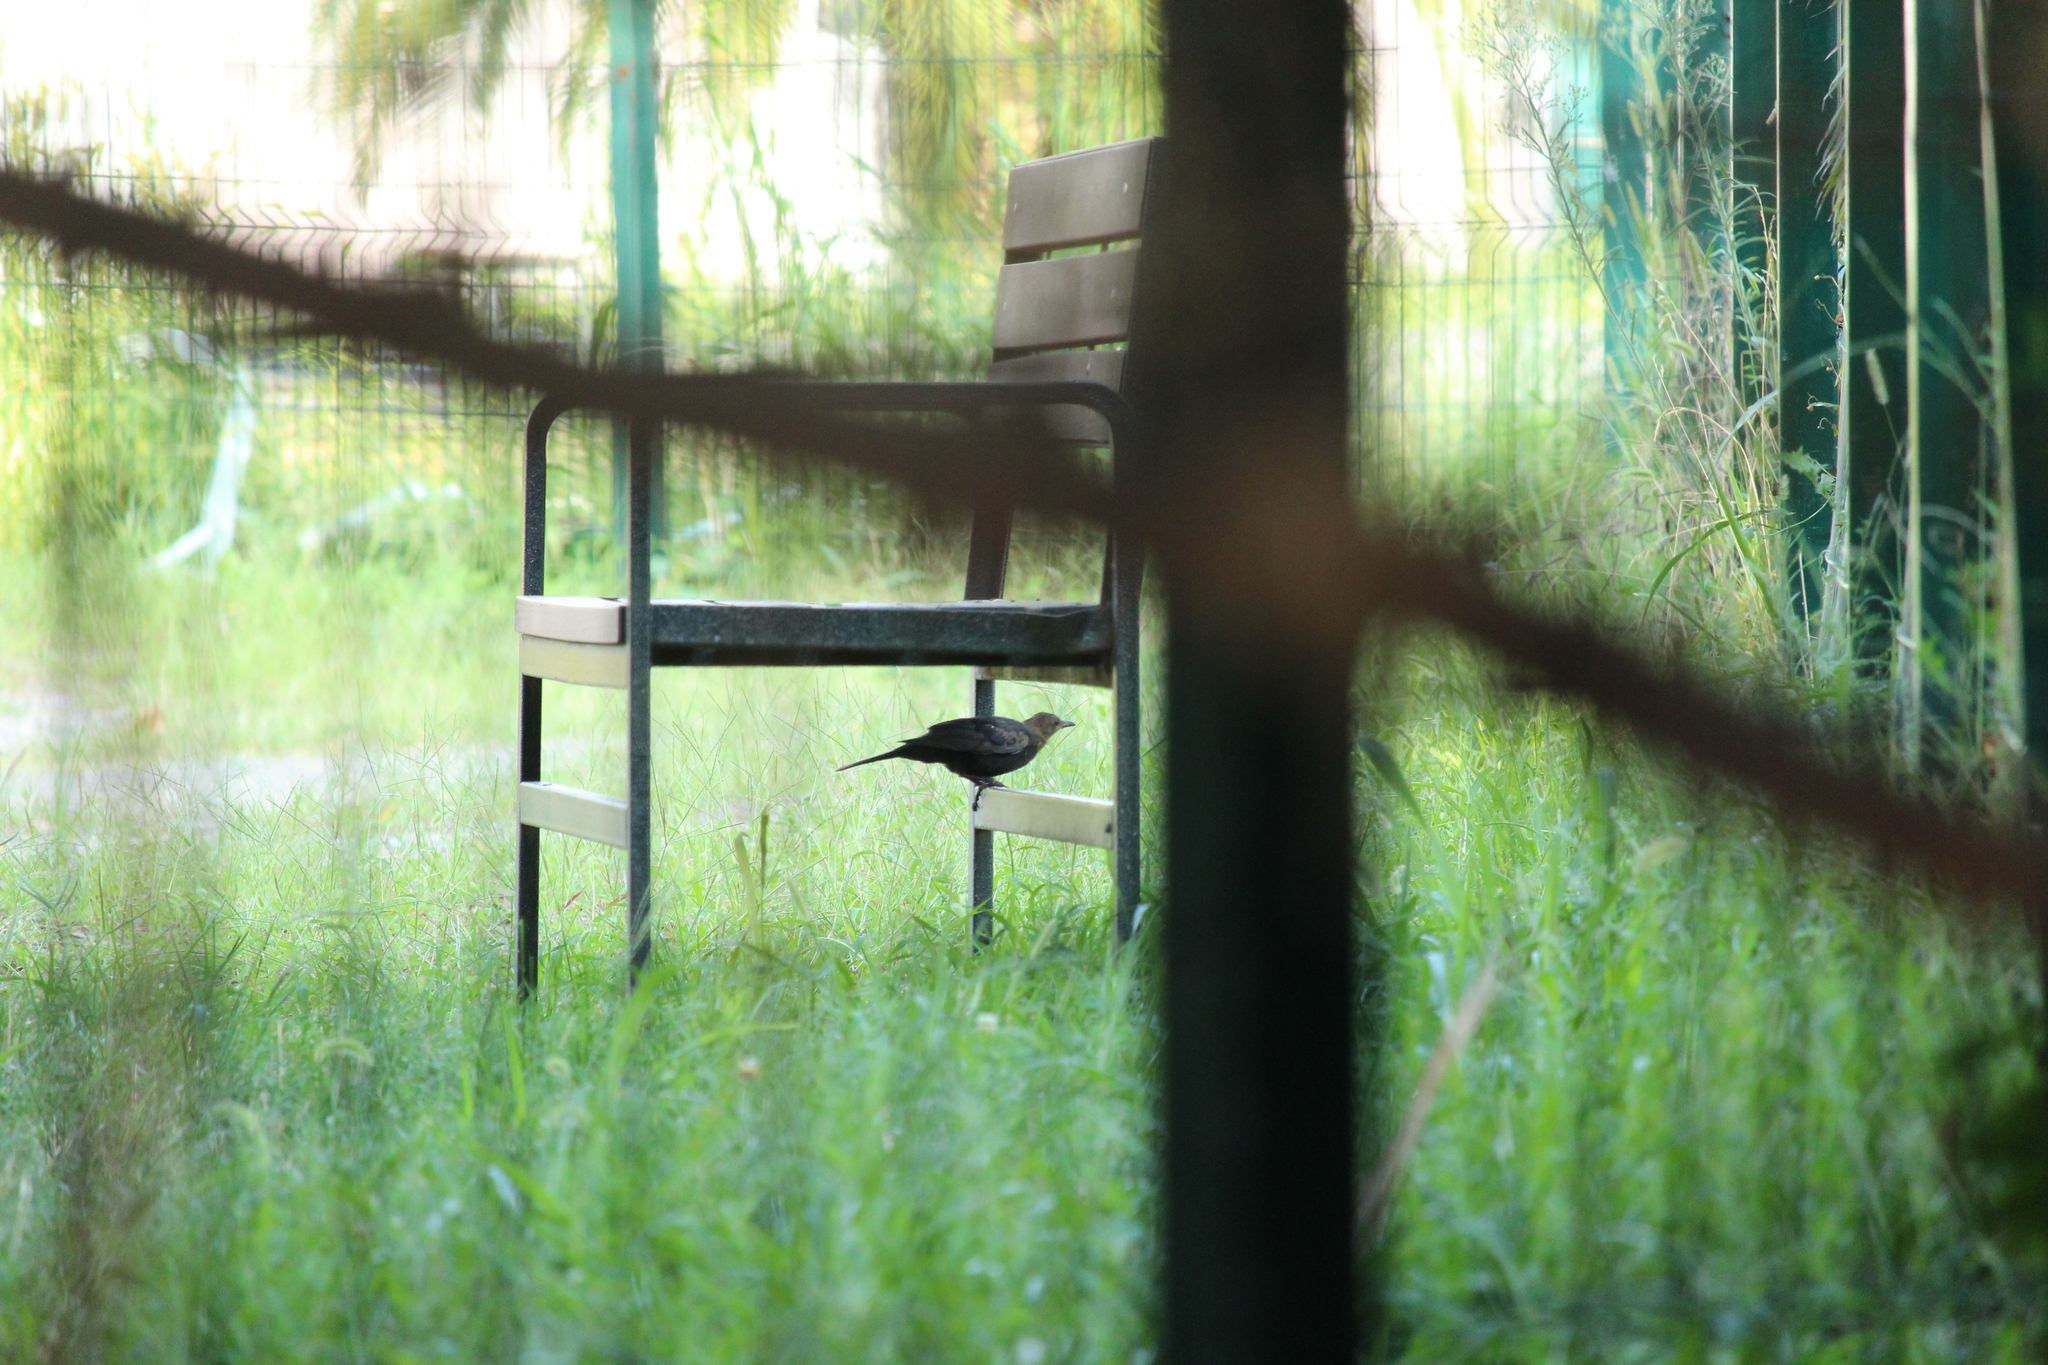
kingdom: Animalia
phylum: Chordata
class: Aves
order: Passeriformes
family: Turdidae
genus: Turdus
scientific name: Turdus merula
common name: Common blackbird
